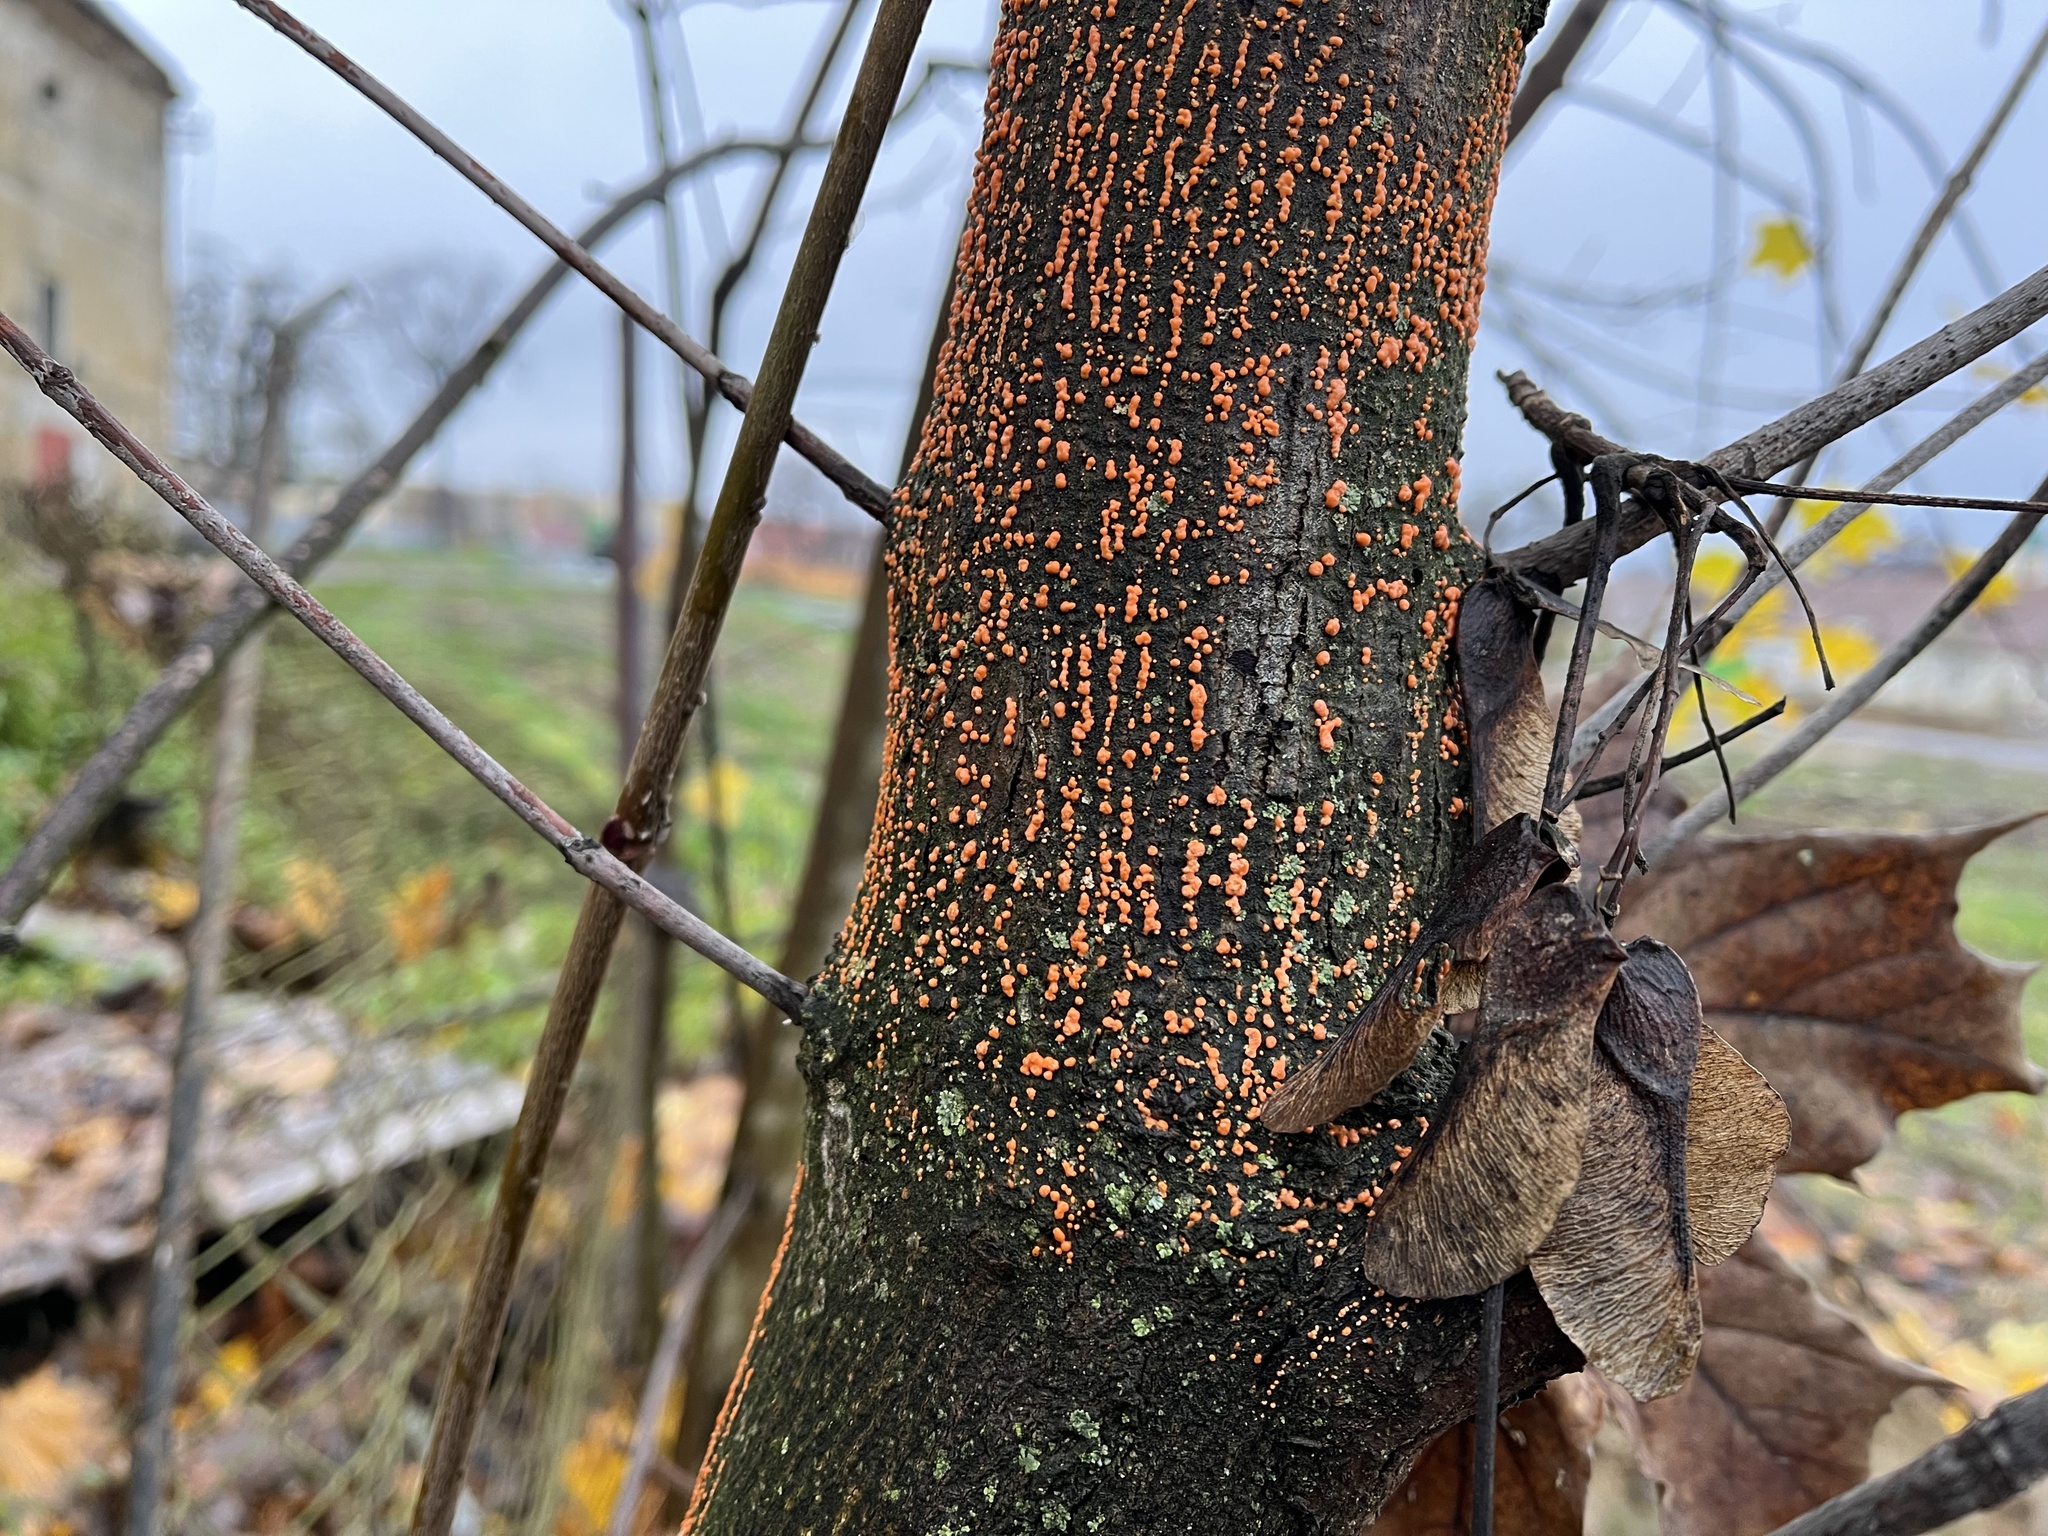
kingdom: Fungi
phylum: Ascomycota
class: Sordariomycetes
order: Hypocreales
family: Nectriaceae
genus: Nectria
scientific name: Nectria cinnabarina
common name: Coral spot
